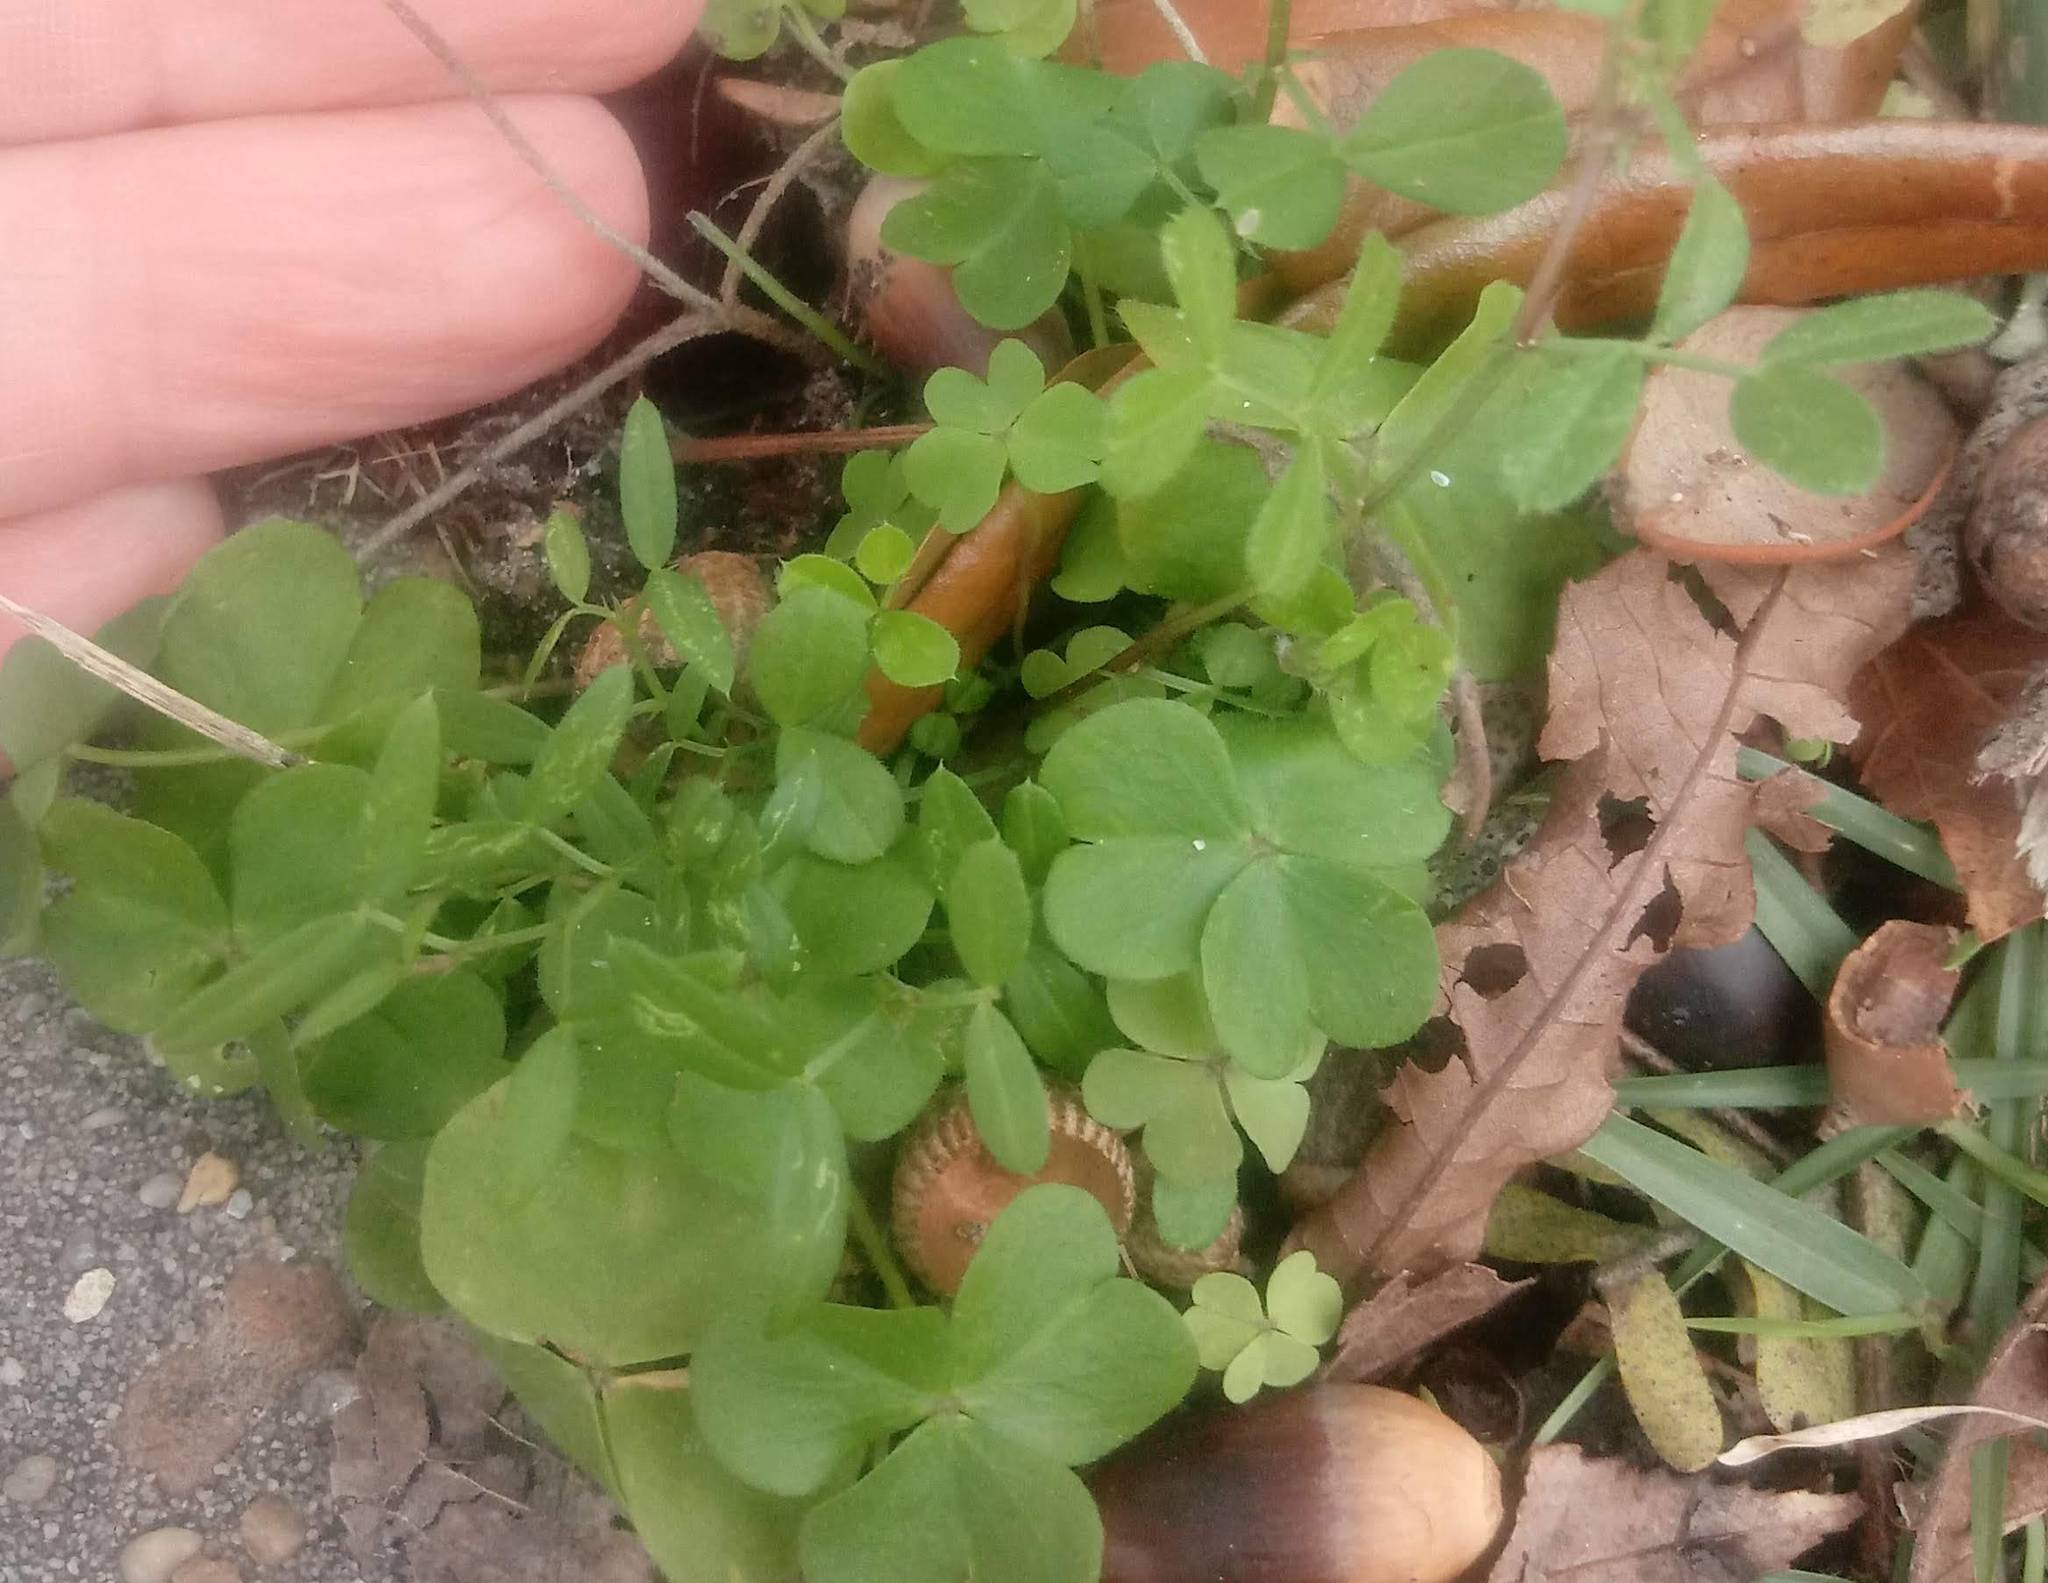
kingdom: Plantae
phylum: Tracheophyta
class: Magnoliopsida
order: Oxalidales
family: Oxalidaceae
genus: Oxalis
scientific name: Oxalis debilis
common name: Large-flowered pink-sorrel
